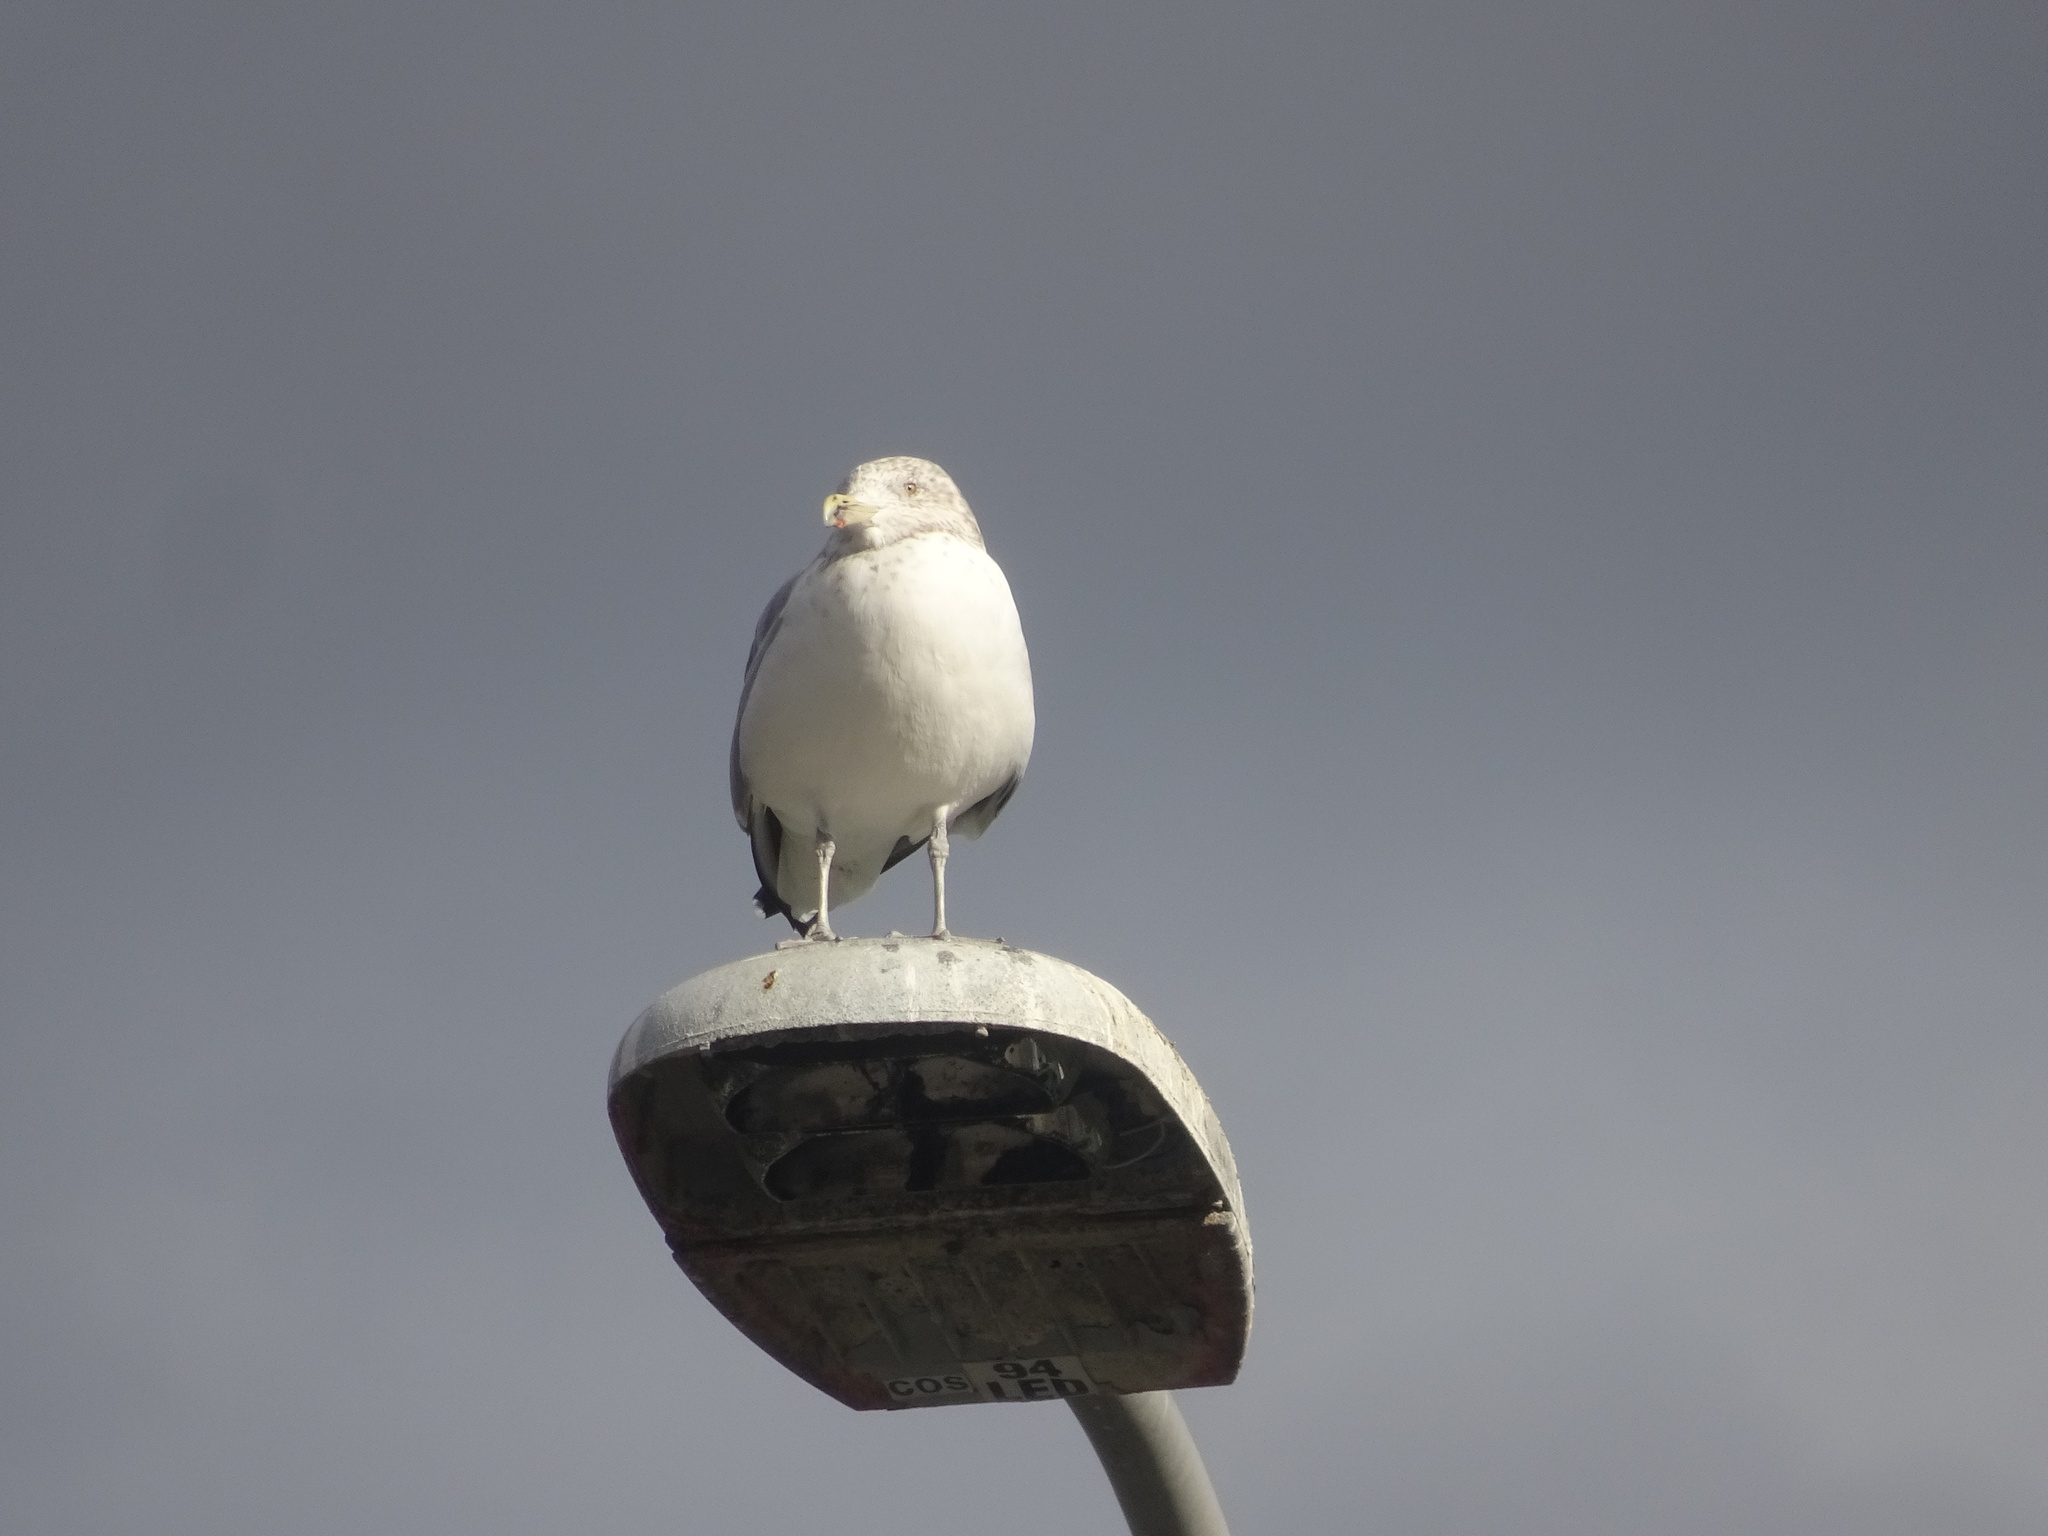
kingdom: Animalia
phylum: Chordata
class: Aves
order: Charadriiformes
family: Laridae
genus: Larus
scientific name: Larus argentatus
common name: Herring gull
